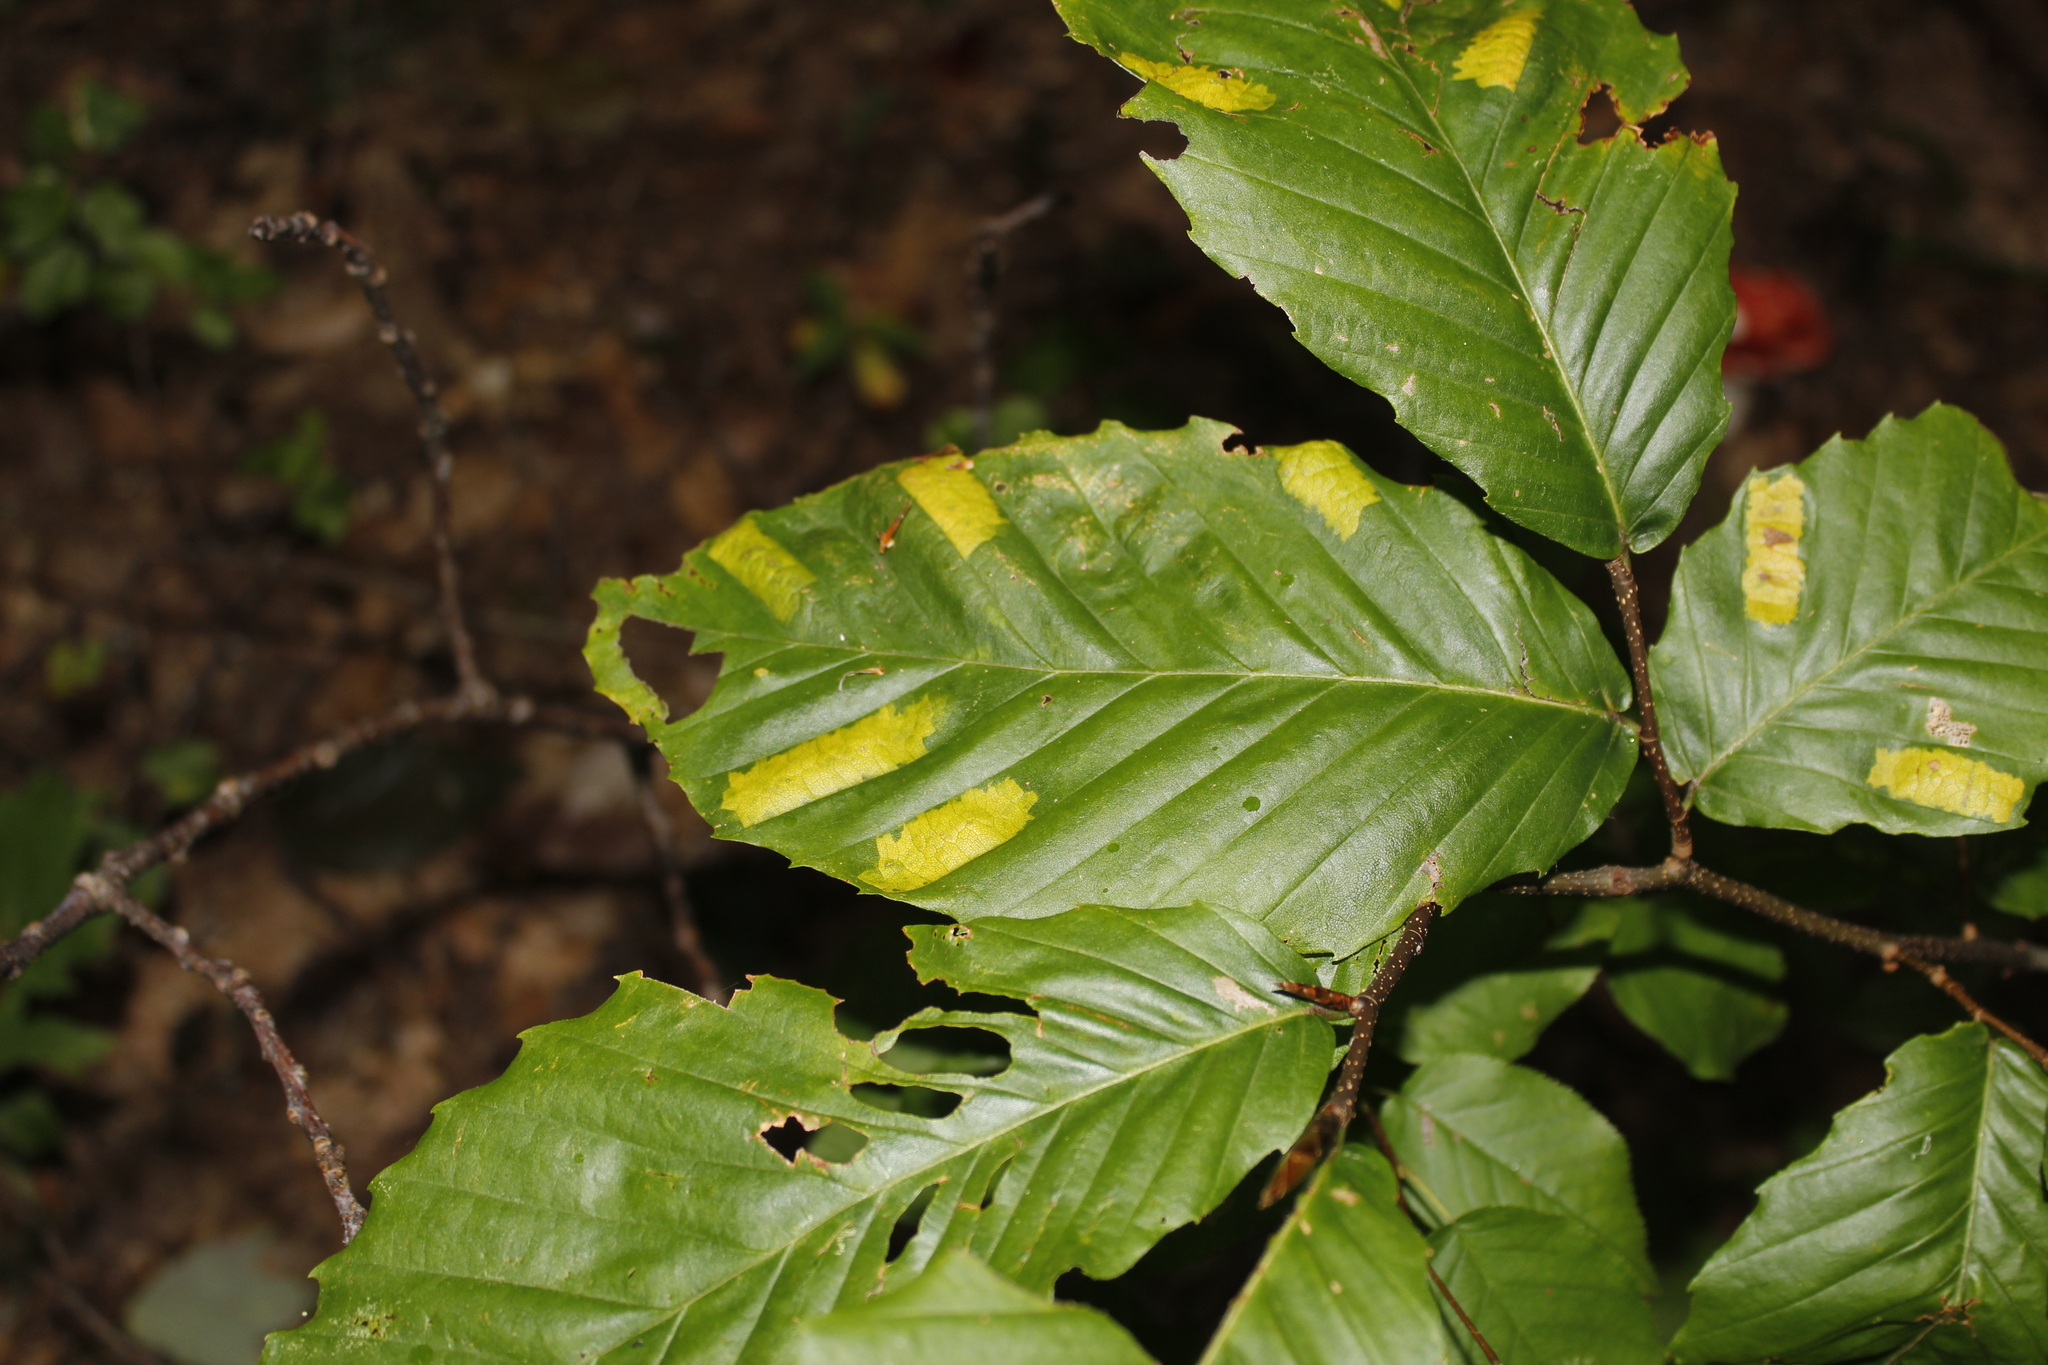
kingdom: Animalia
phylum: Nematoda
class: Chromadorea
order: Rhabditida
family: Anguinidae
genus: Litylenchus
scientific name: Litylenchus crenatae
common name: Beech leaf disease
